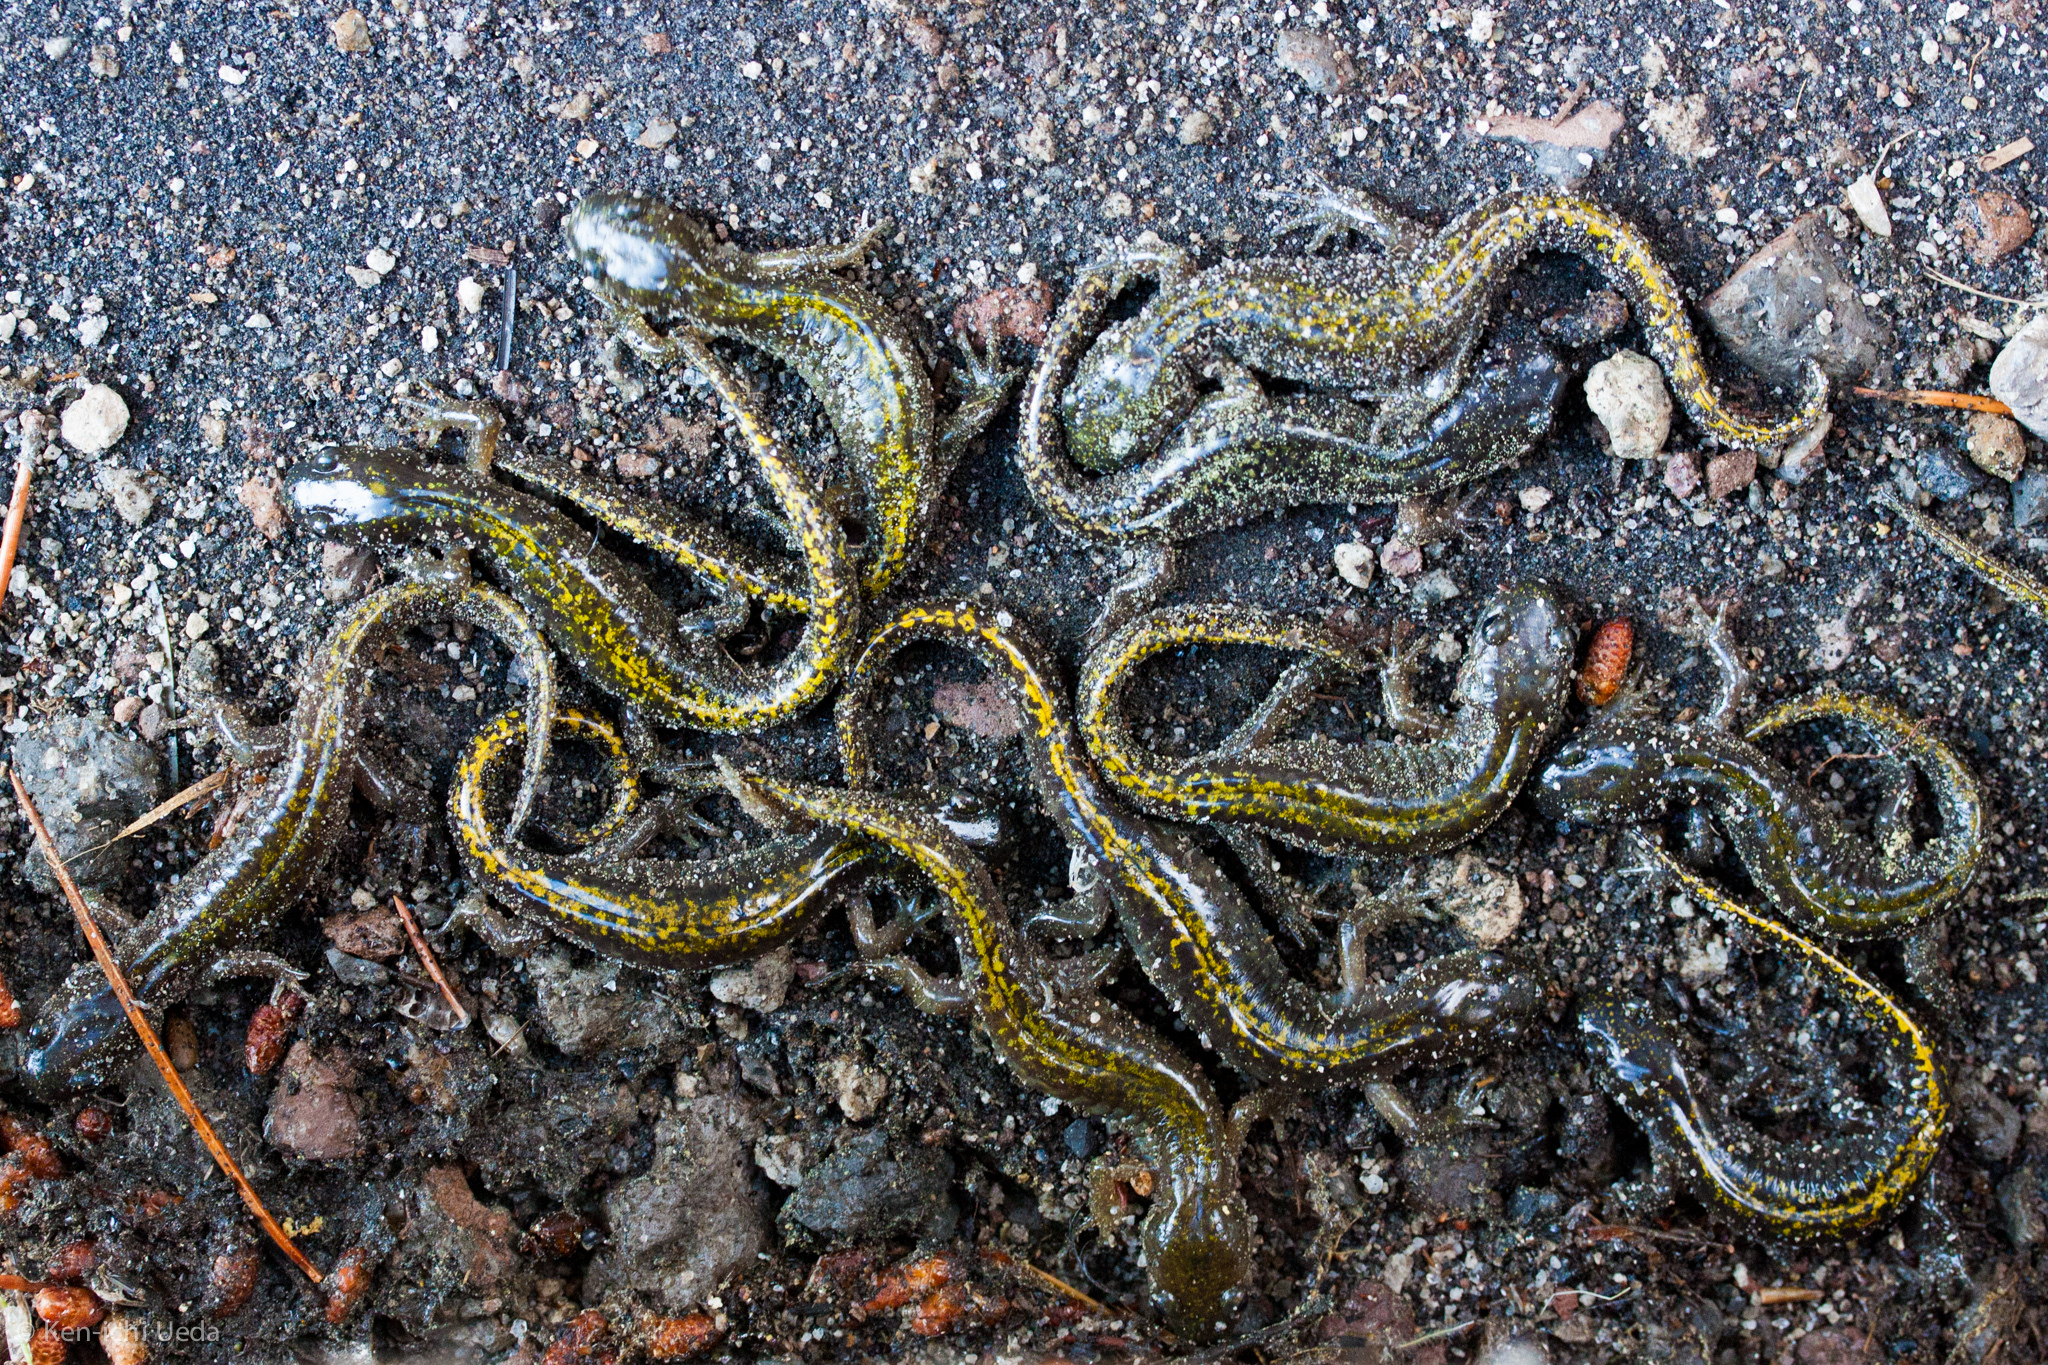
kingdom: Animalia
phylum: Chordata
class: Amphibia
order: Caudata
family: Ambystomatidae
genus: Ambystoma
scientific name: Ambystoma macrodactylum
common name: Long-toed salamander
